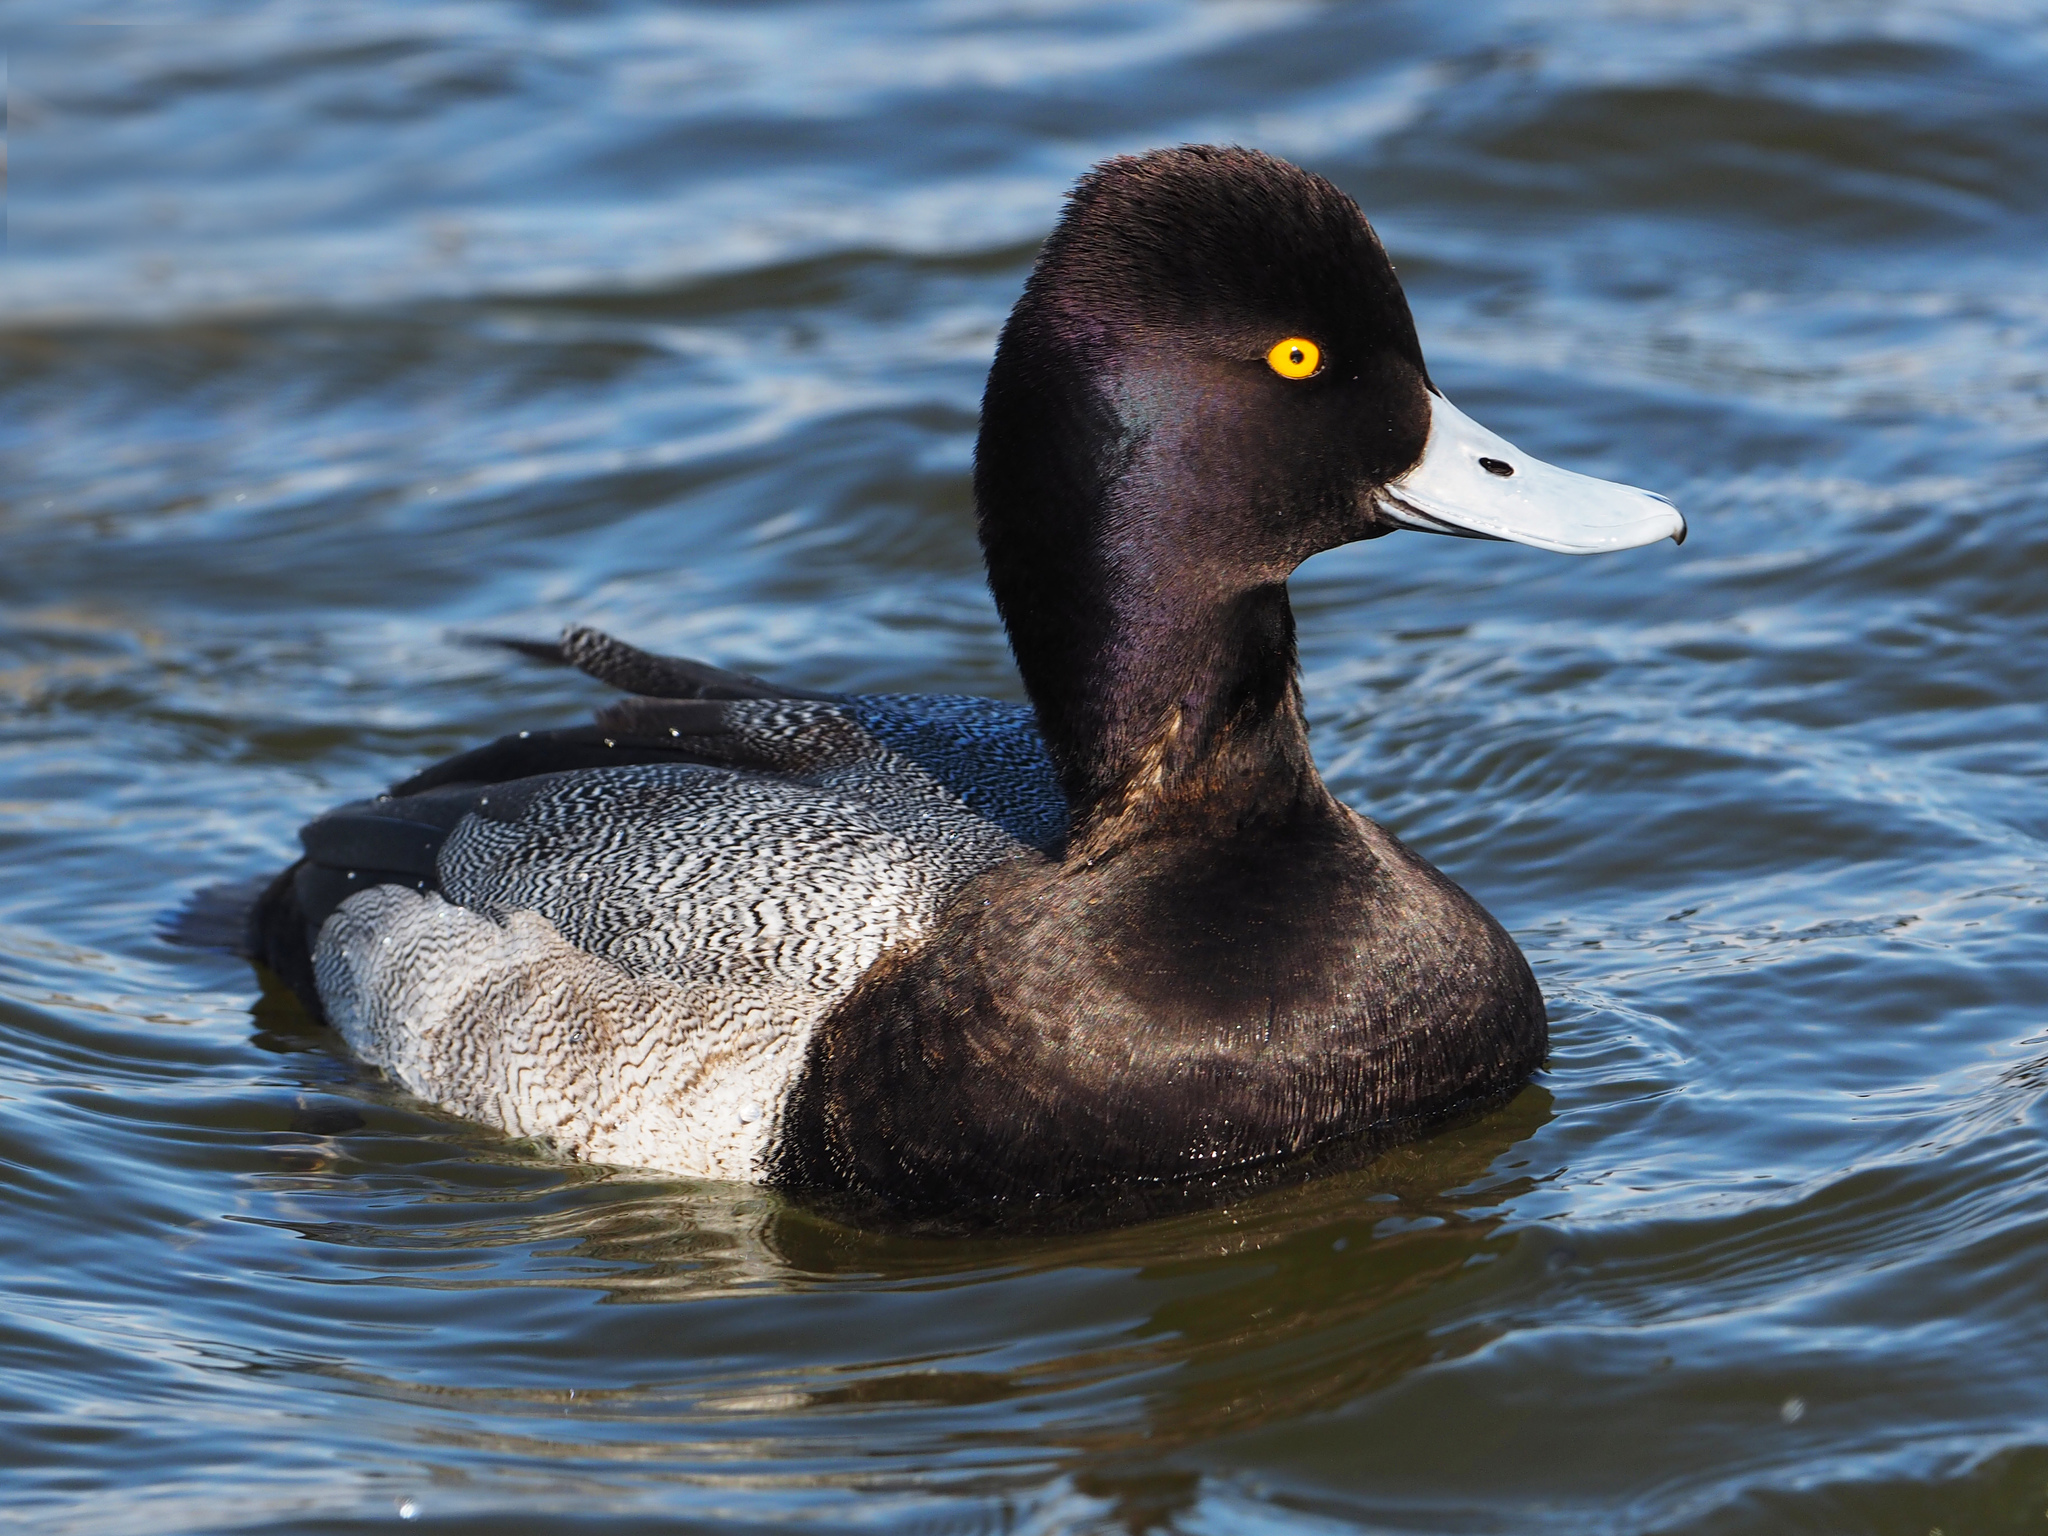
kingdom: Animalia
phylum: Chordata
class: Aves
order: Anseriformes
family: Anatidae
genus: Aythya
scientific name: Aythya affinis
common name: Lesser scaup
